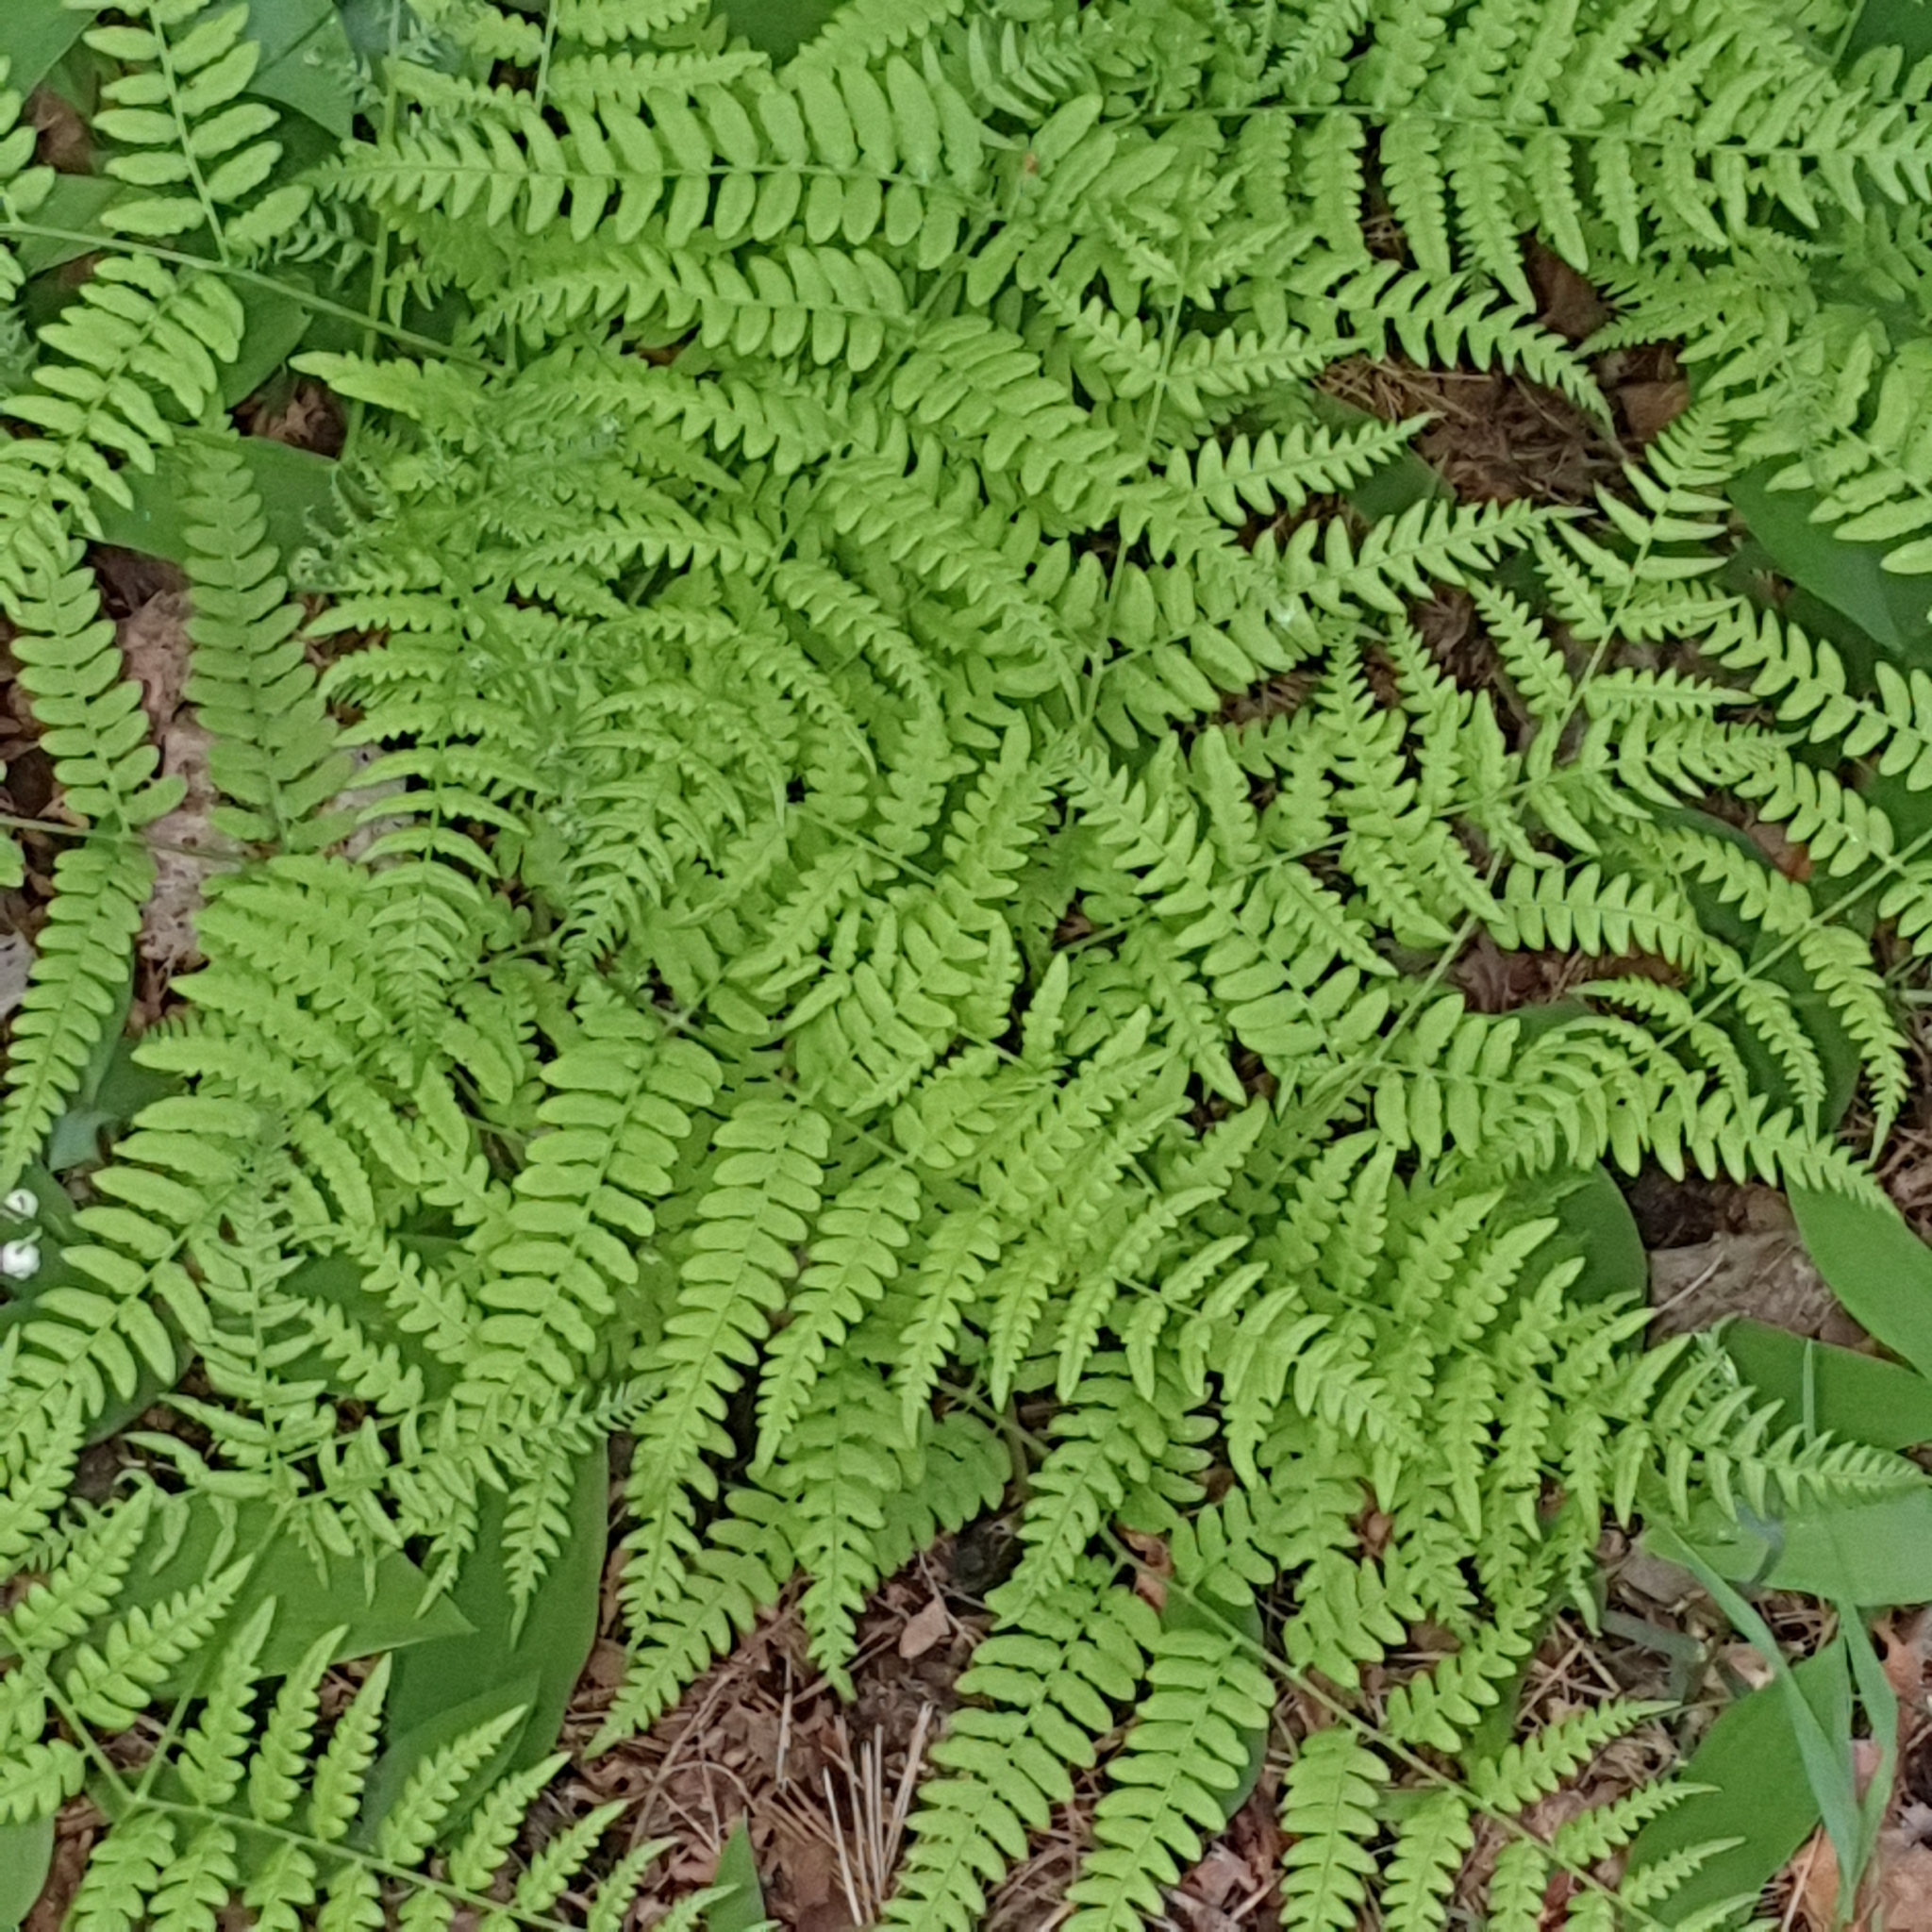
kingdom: Plantae
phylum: Tracheophyta
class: Polypodiopsida
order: Polypodiales
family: Dennstaedtiaceae
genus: Pteridium
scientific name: Pteridium aquilinum
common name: Bracken
